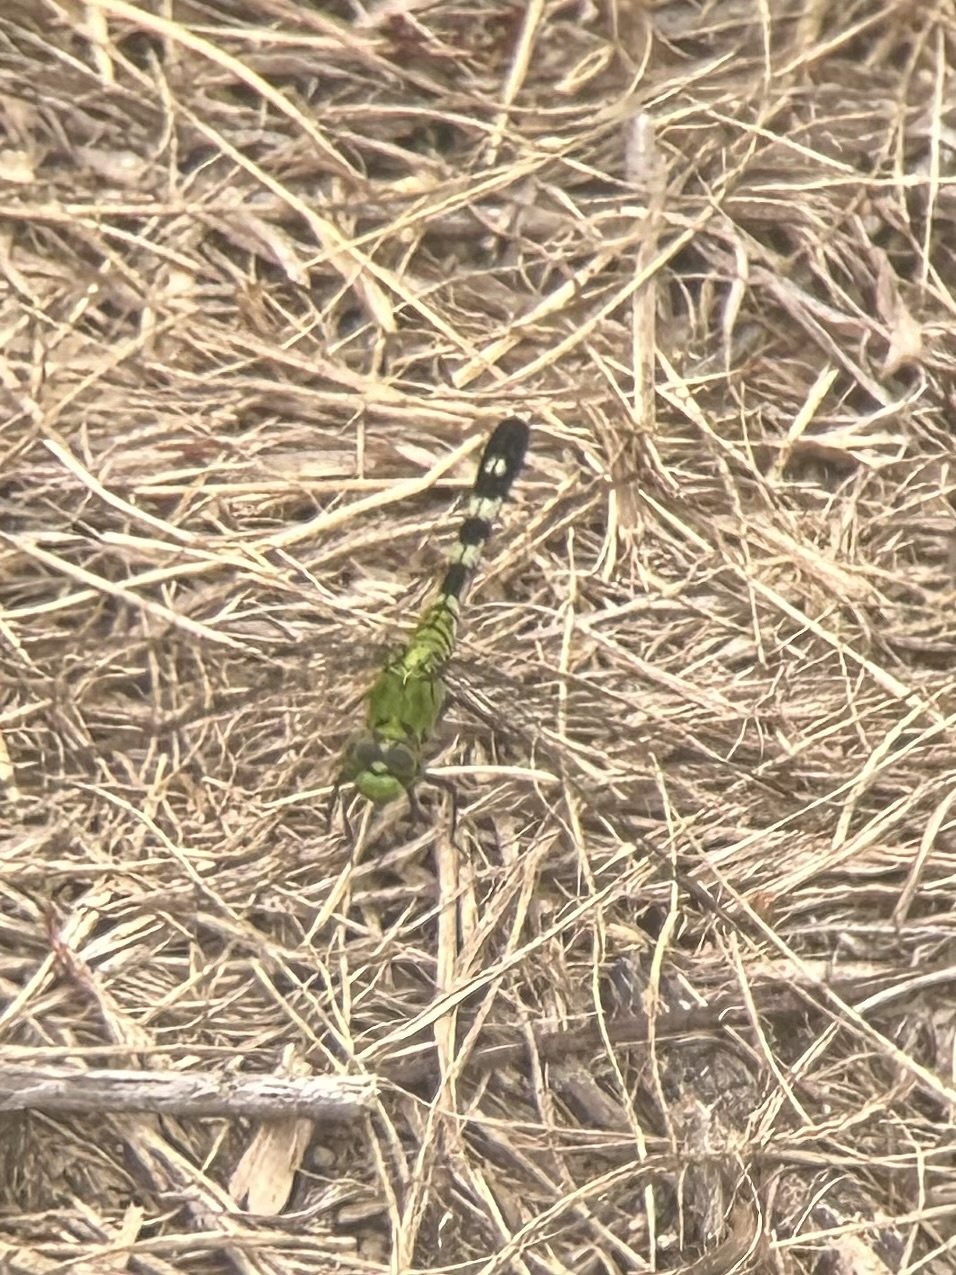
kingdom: Animalia
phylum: Arthropoda
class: Insecta
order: Odonata
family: Libellulidae
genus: Erythemis
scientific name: Erythemis simplicicollis
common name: Eastern pondhawk
